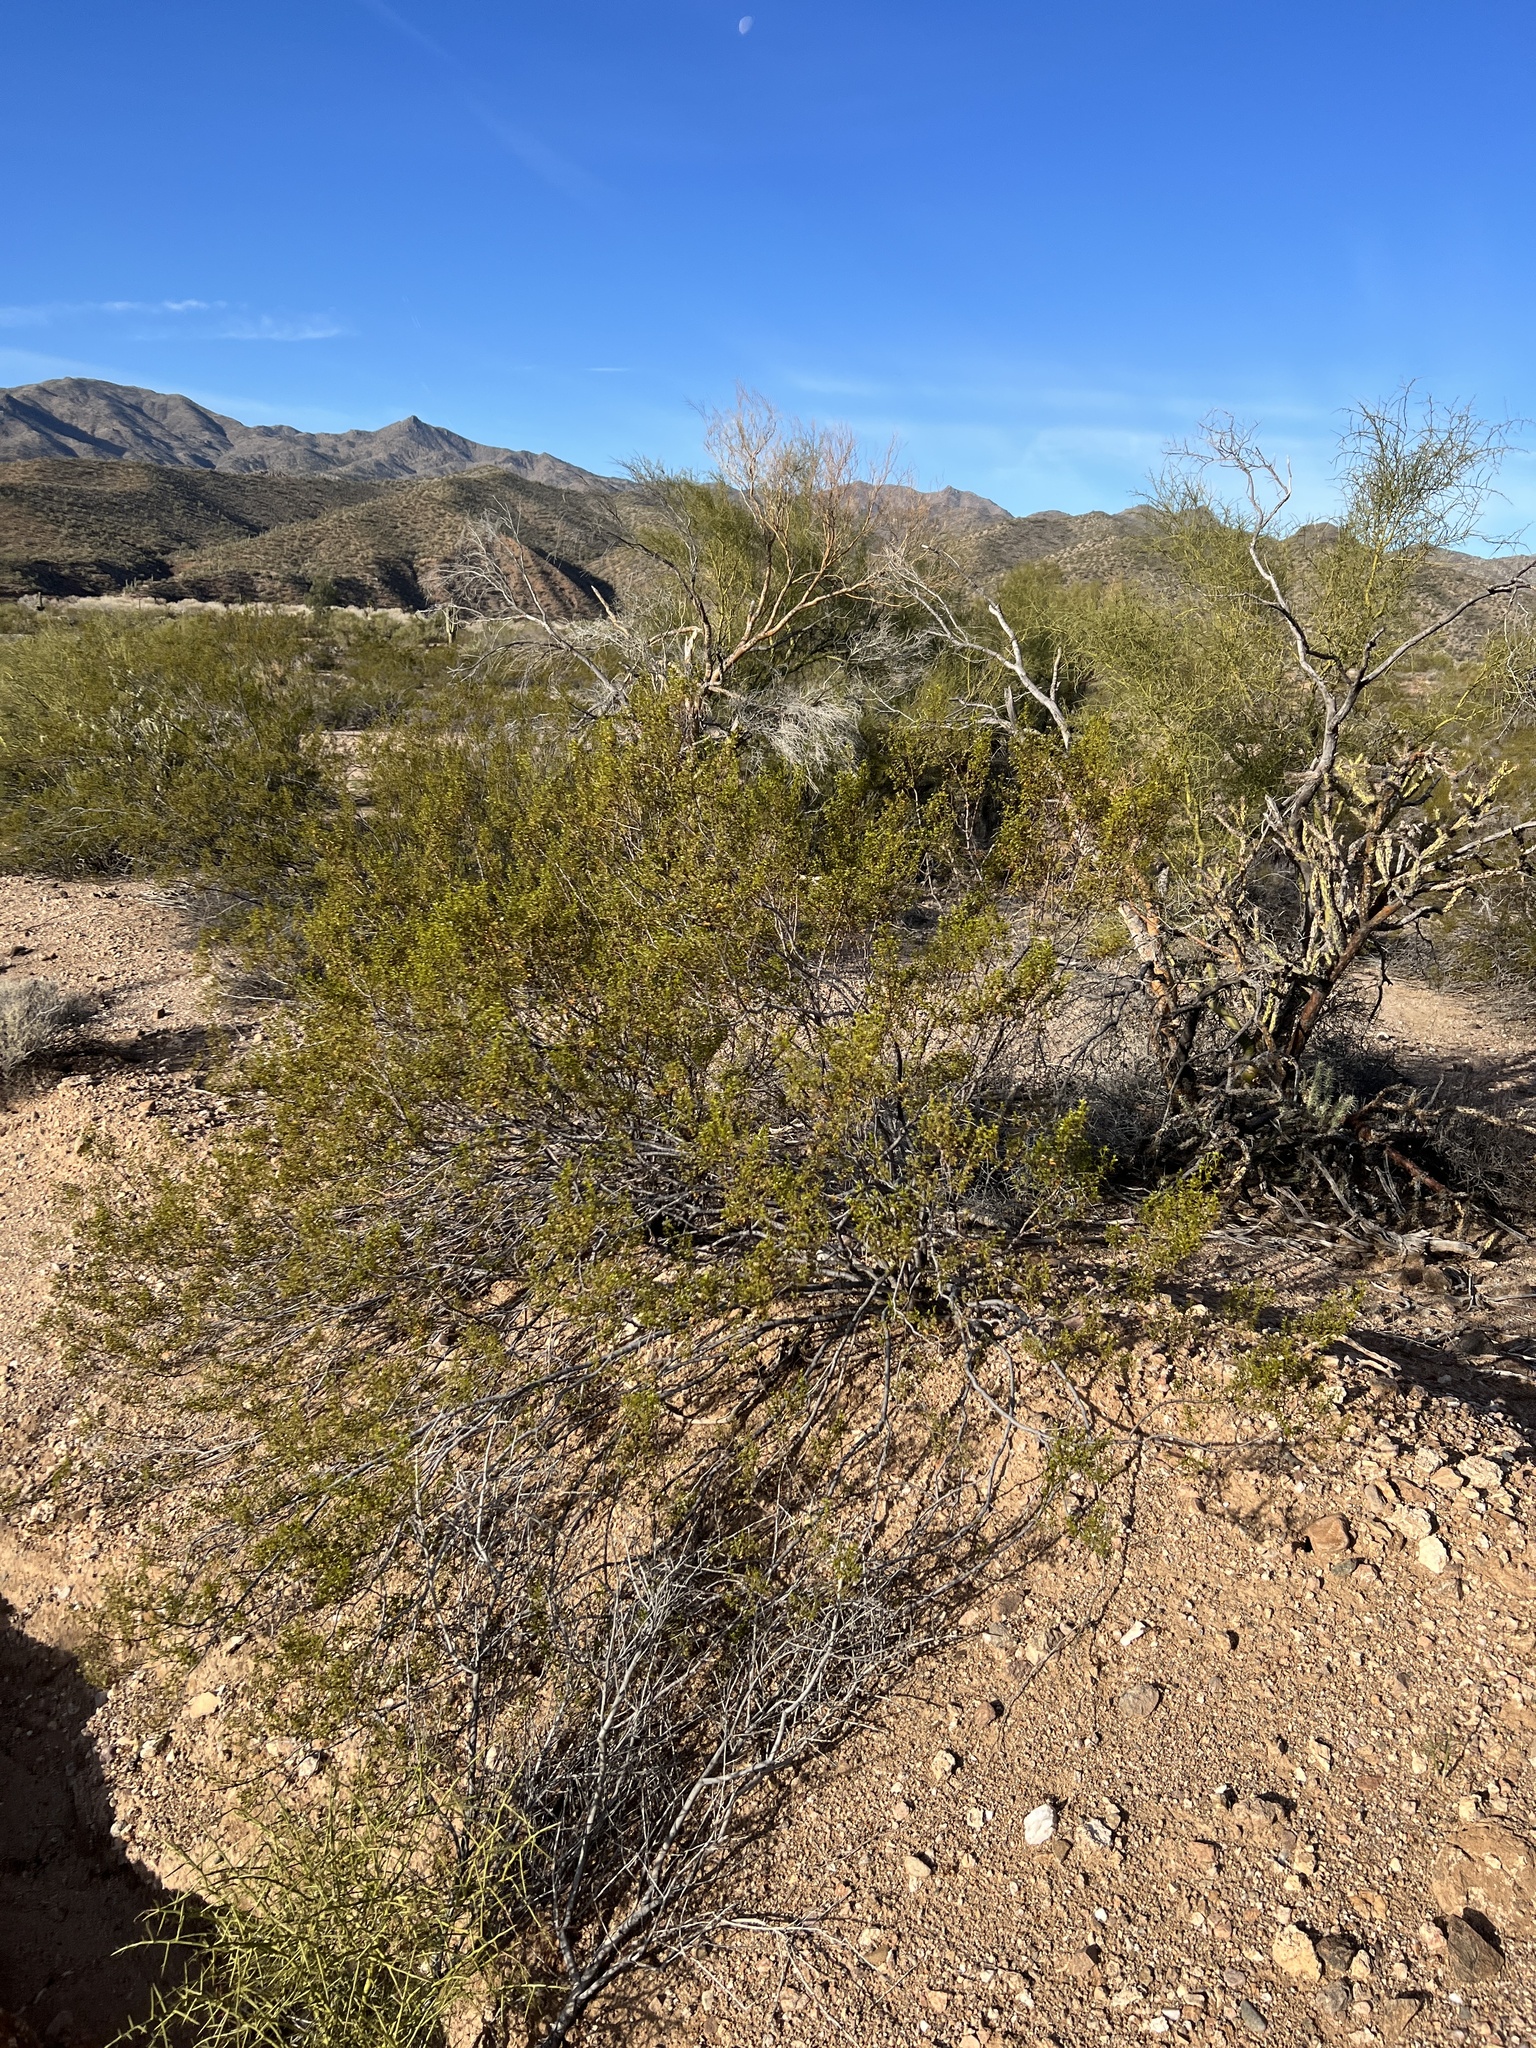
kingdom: Plantae
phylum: Tracheophyta
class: Magnoliopsida
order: Zygophyllales
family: Zygophyllaceae
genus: Larrea
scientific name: Larrea tridentata
